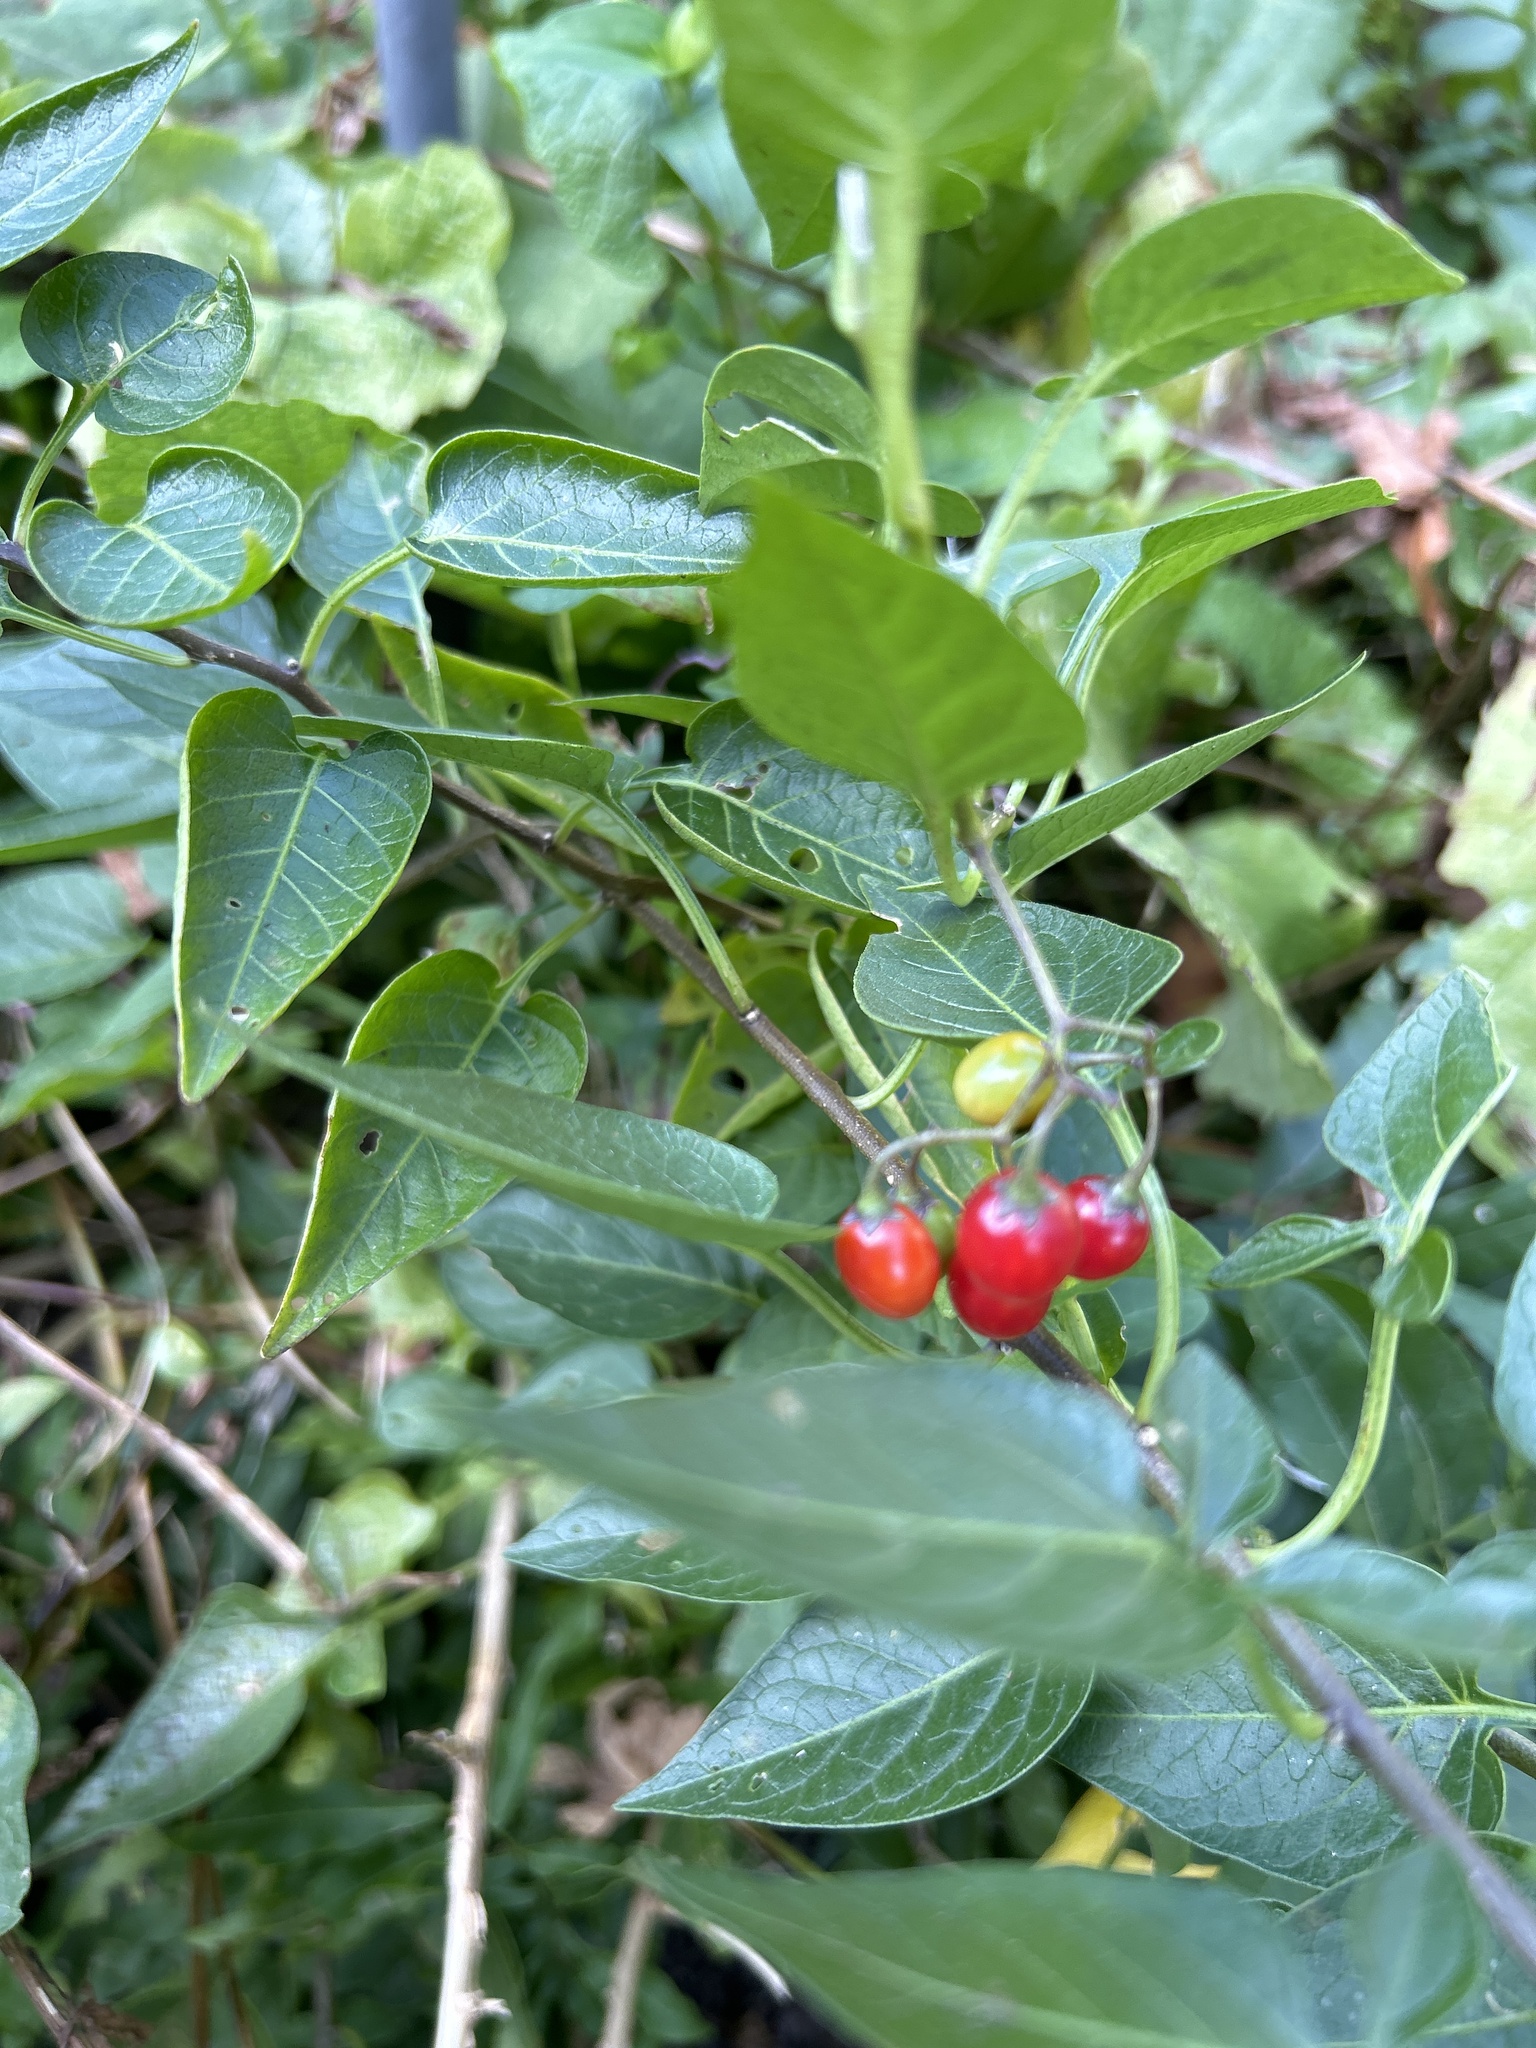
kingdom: Plantae
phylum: Tracheophyta
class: Magnoliopsida
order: Solanales
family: Solanaceae
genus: Solanum
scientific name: Solanum dulcamara
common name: Climbing nightshade
